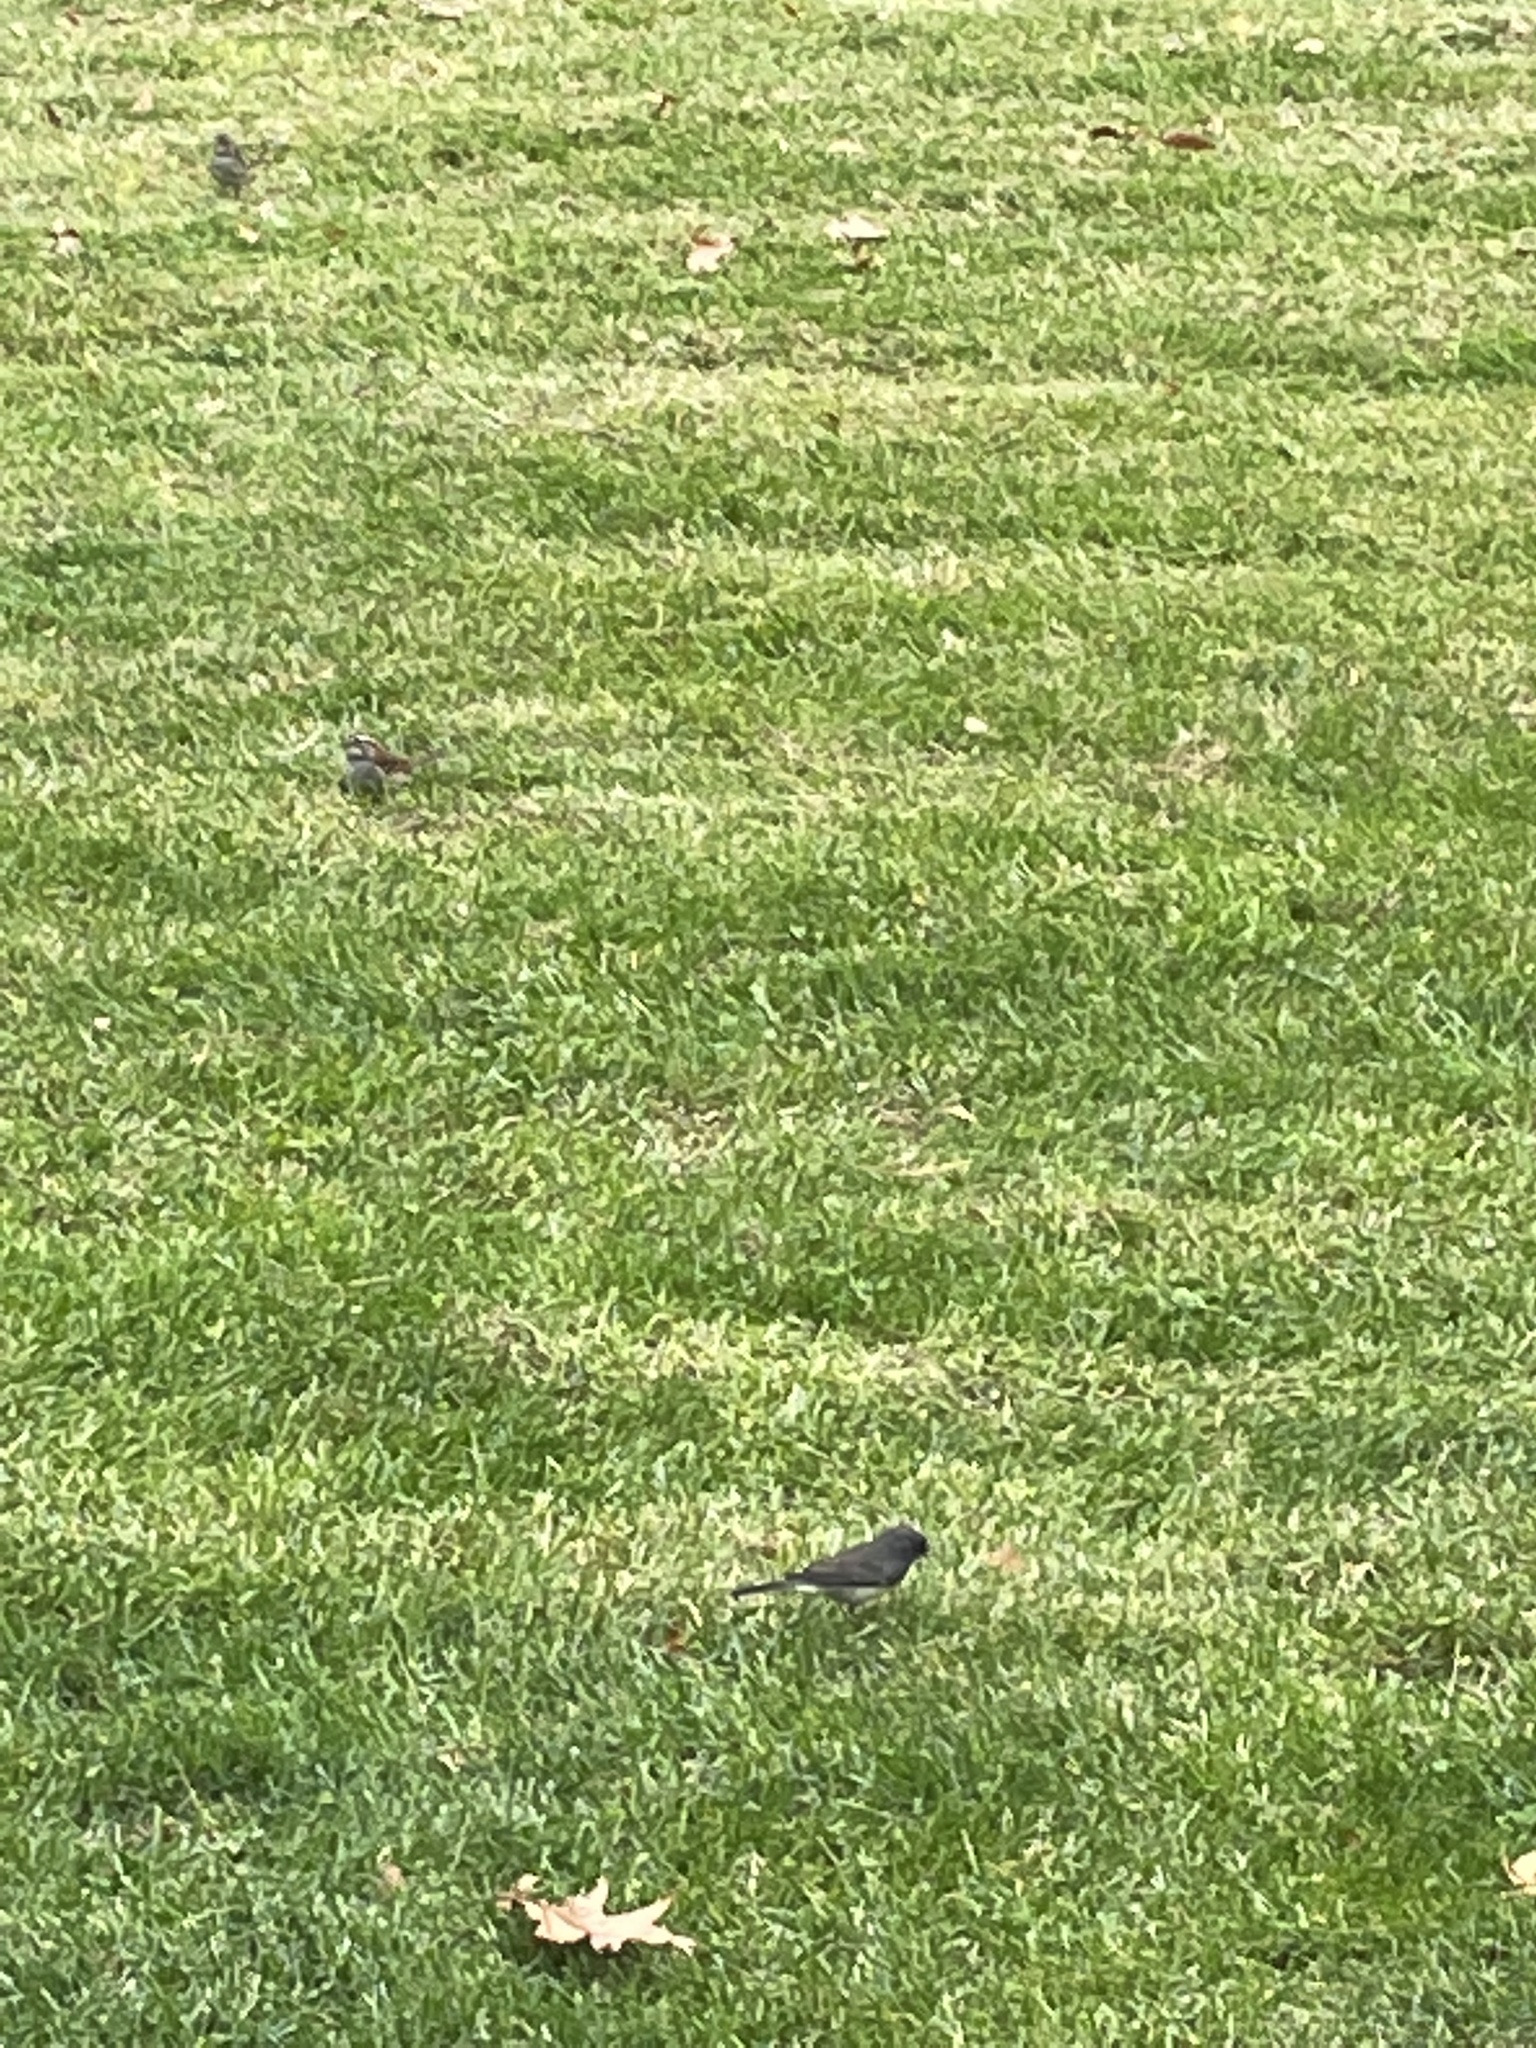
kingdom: Animalia
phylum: Chordata
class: Aves
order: Passeriformes
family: Passerellidae
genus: Junco
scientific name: Junco hyemalis
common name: Dark-eyed junco
